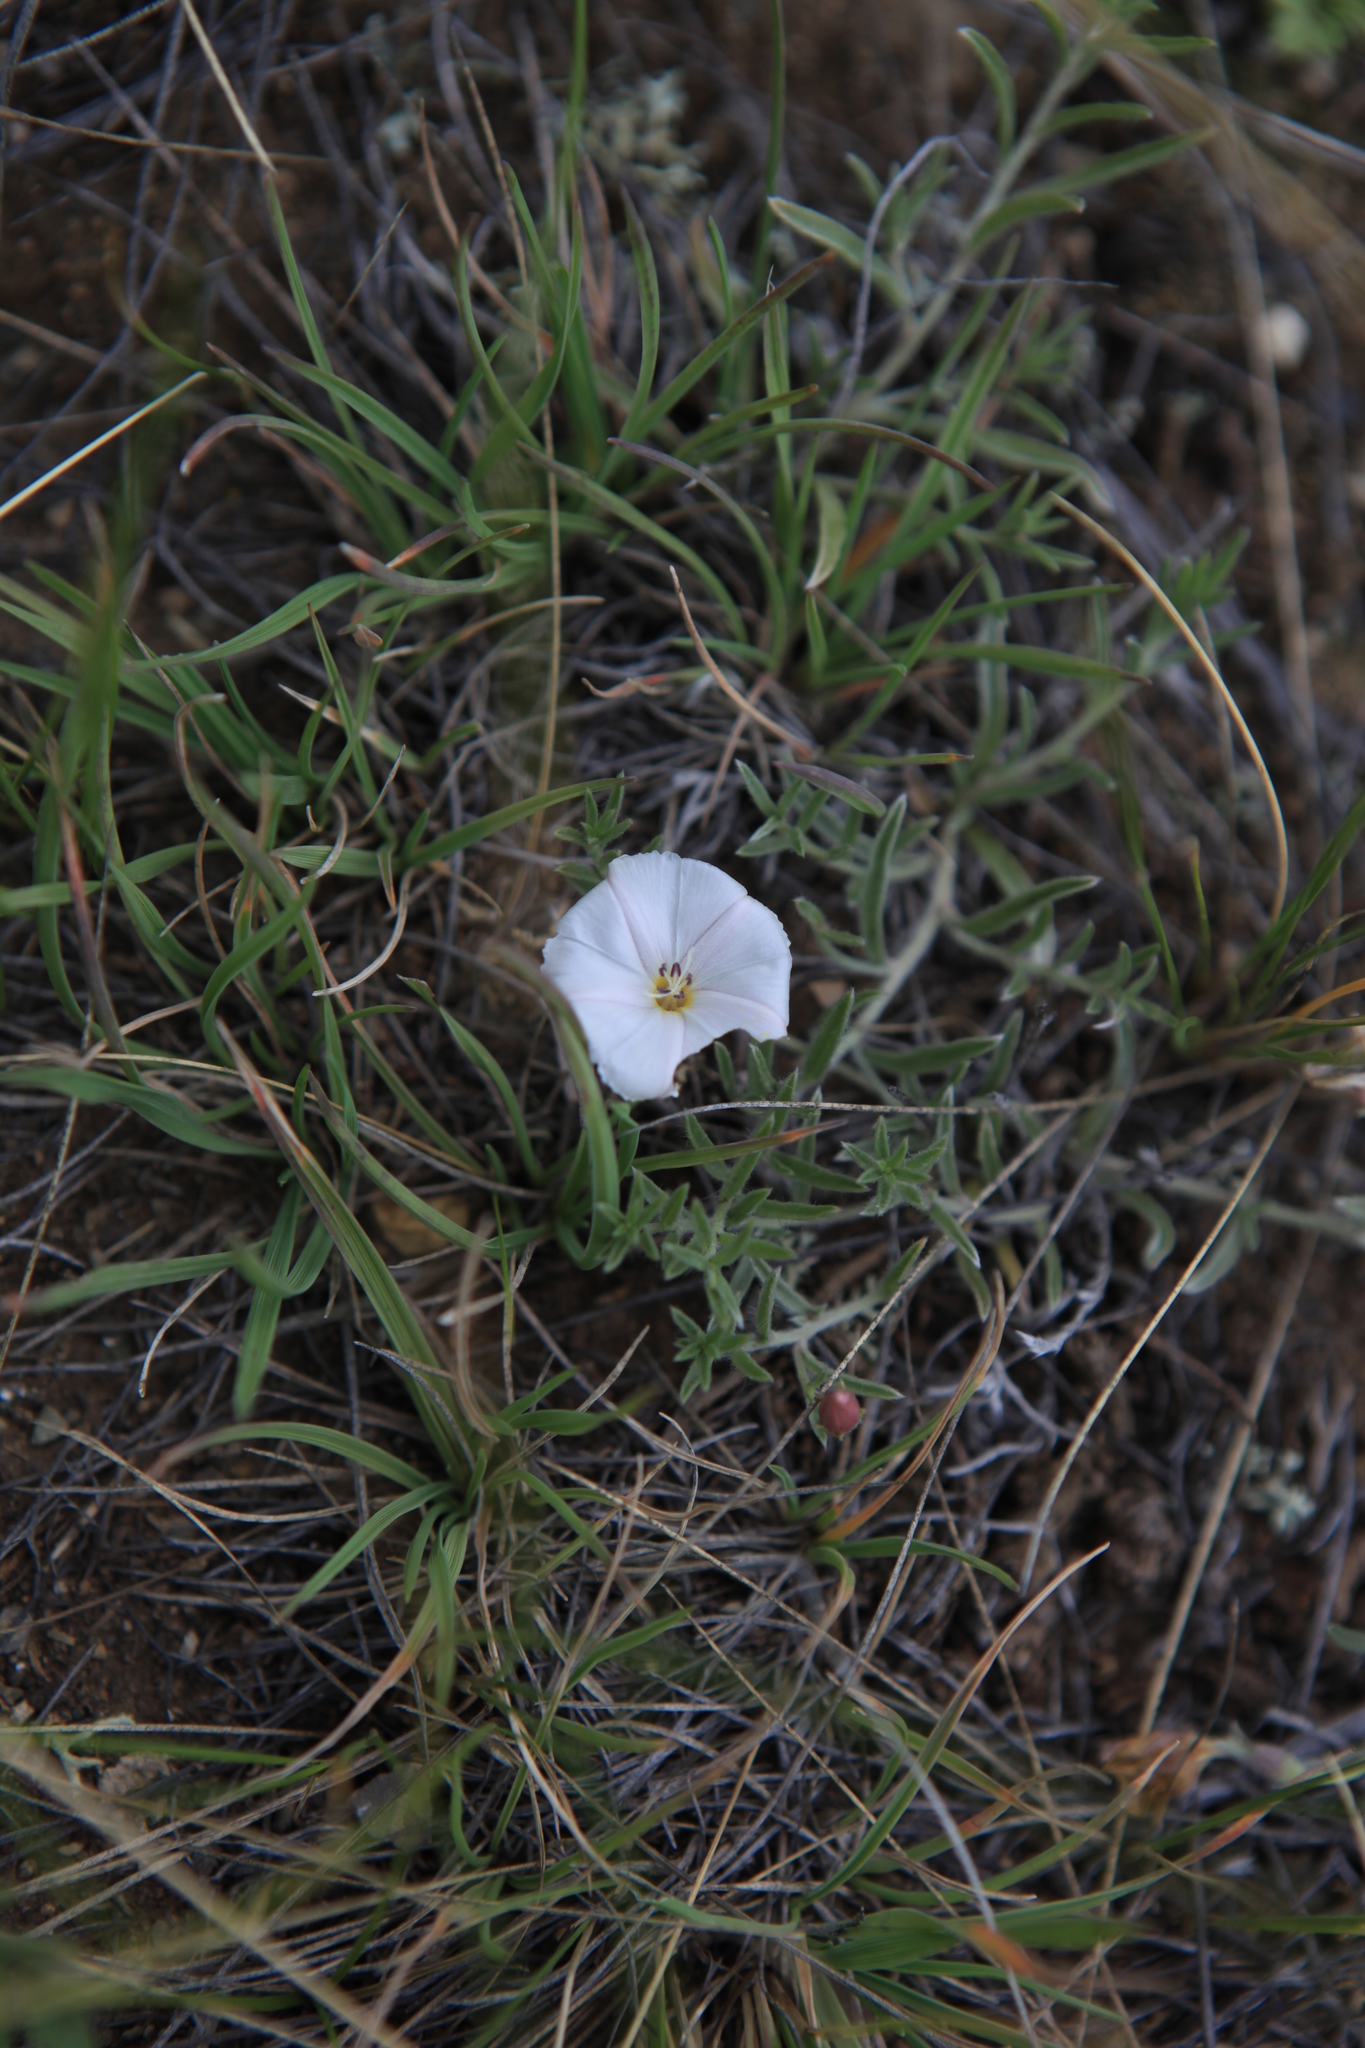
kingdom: Plantae
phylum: Tracheophyta
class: Magnoliopsida
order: Solanales
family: Convolvulaceae
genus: Convolvulus
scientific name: Convolvulus ammannii
